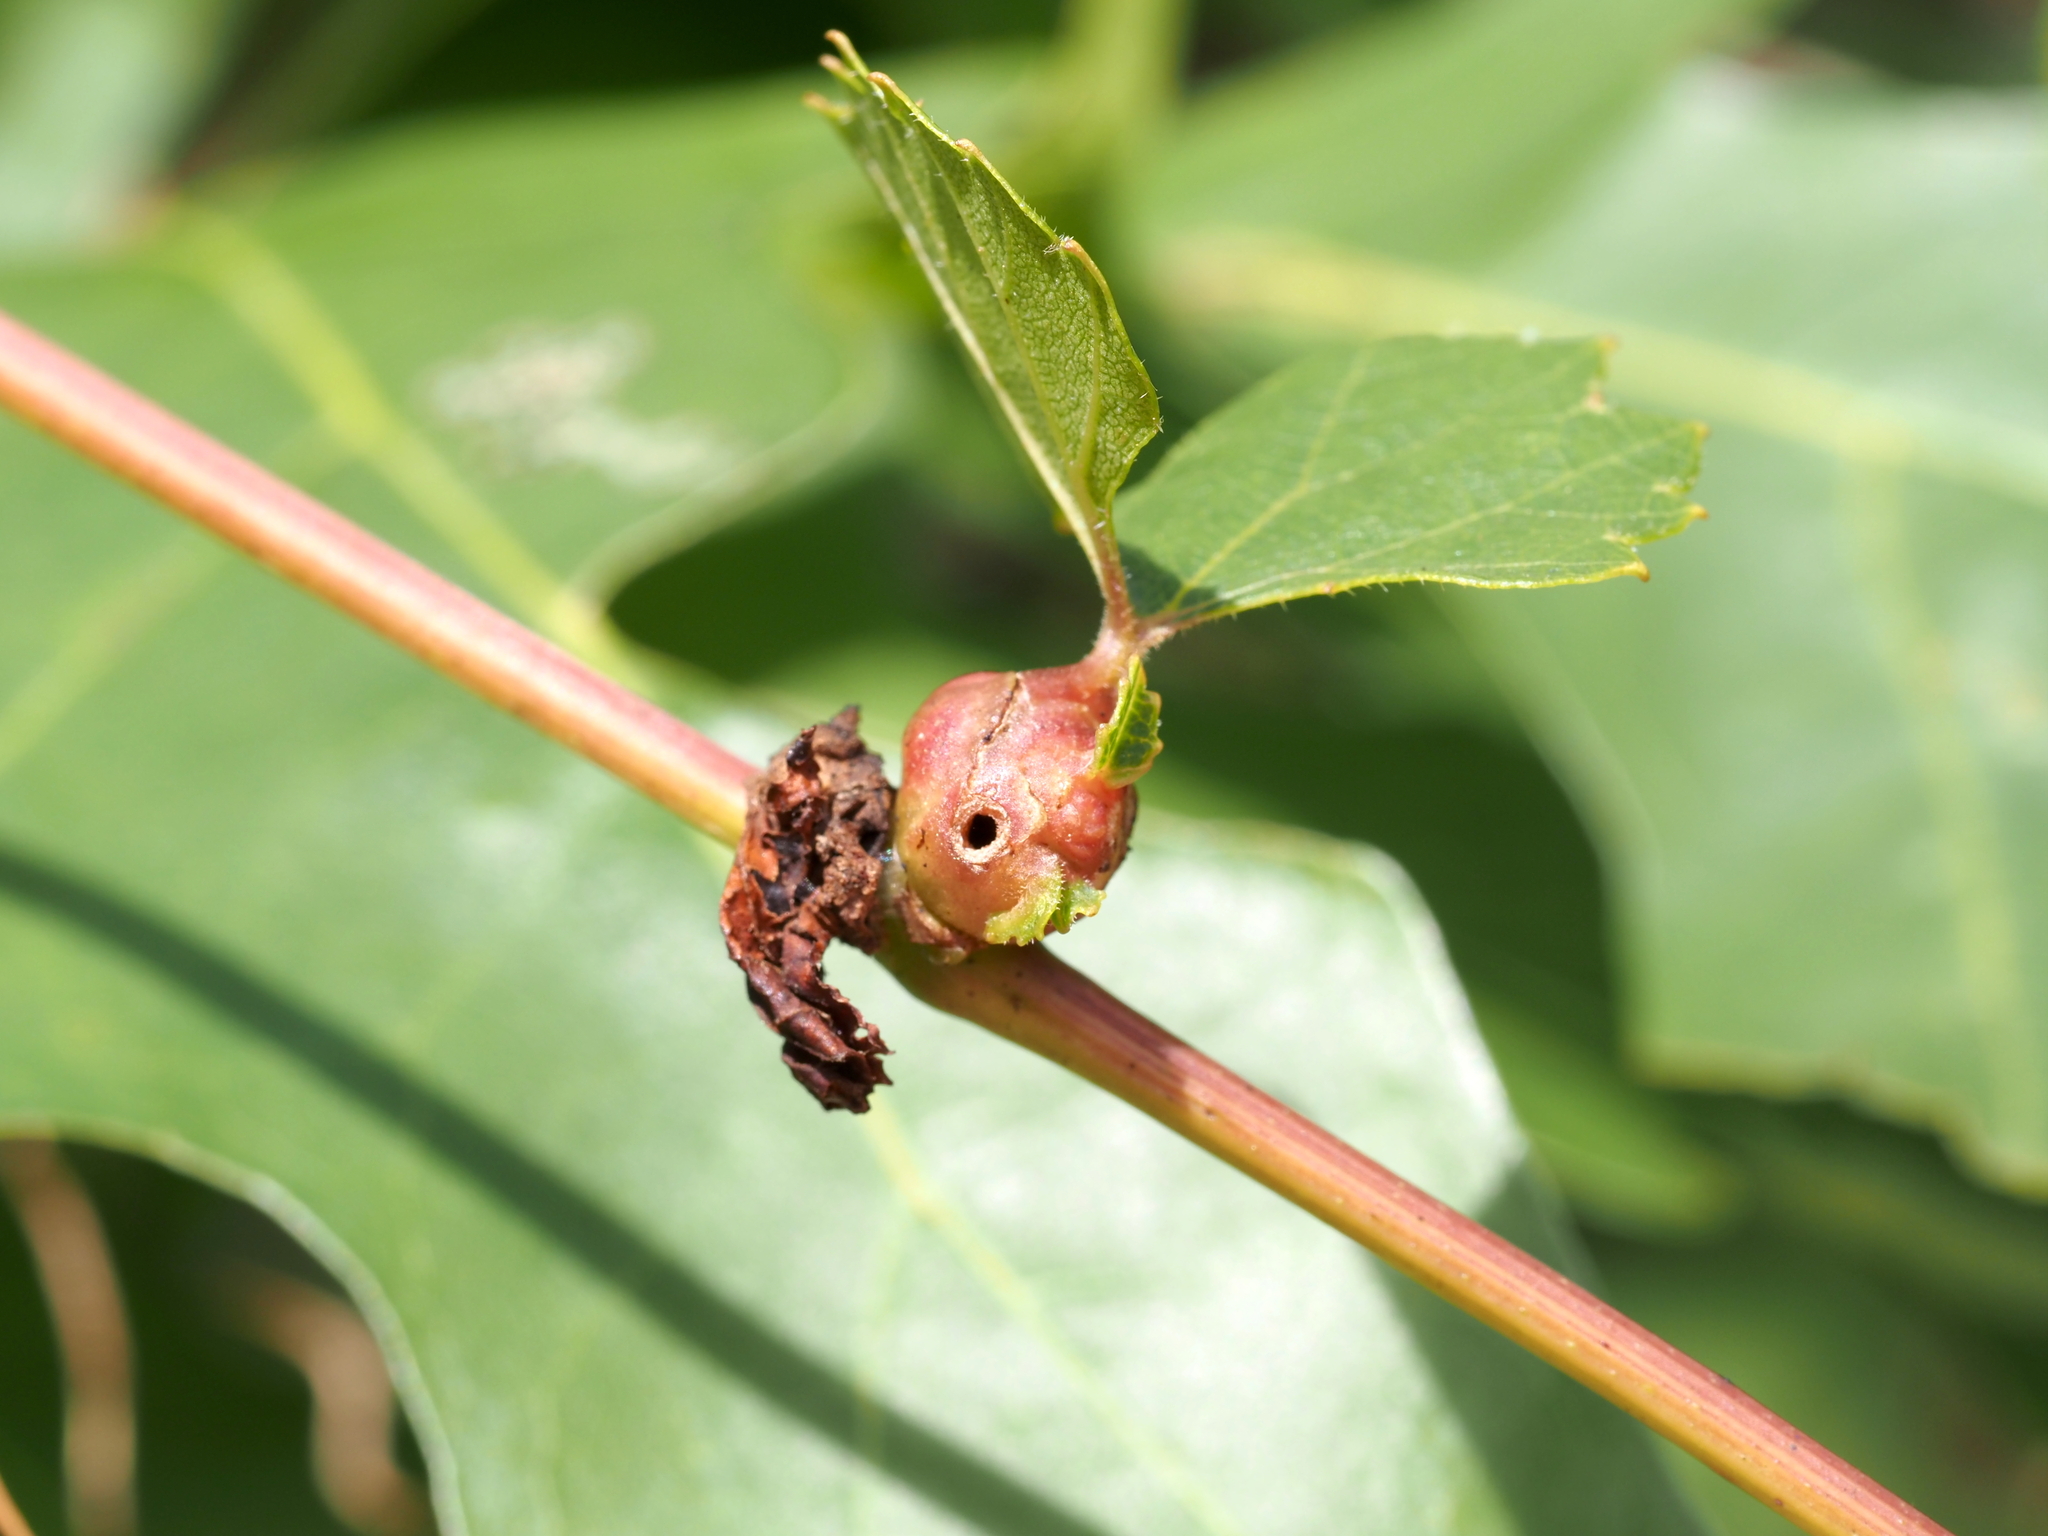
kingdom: Animalia
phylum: Arthropoda
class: Insecta
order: Diptera
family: Cecidomyiidae
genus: Vitisiella
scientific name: Vitisiella brevicauda
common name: Grape tumid gallmaker midge
